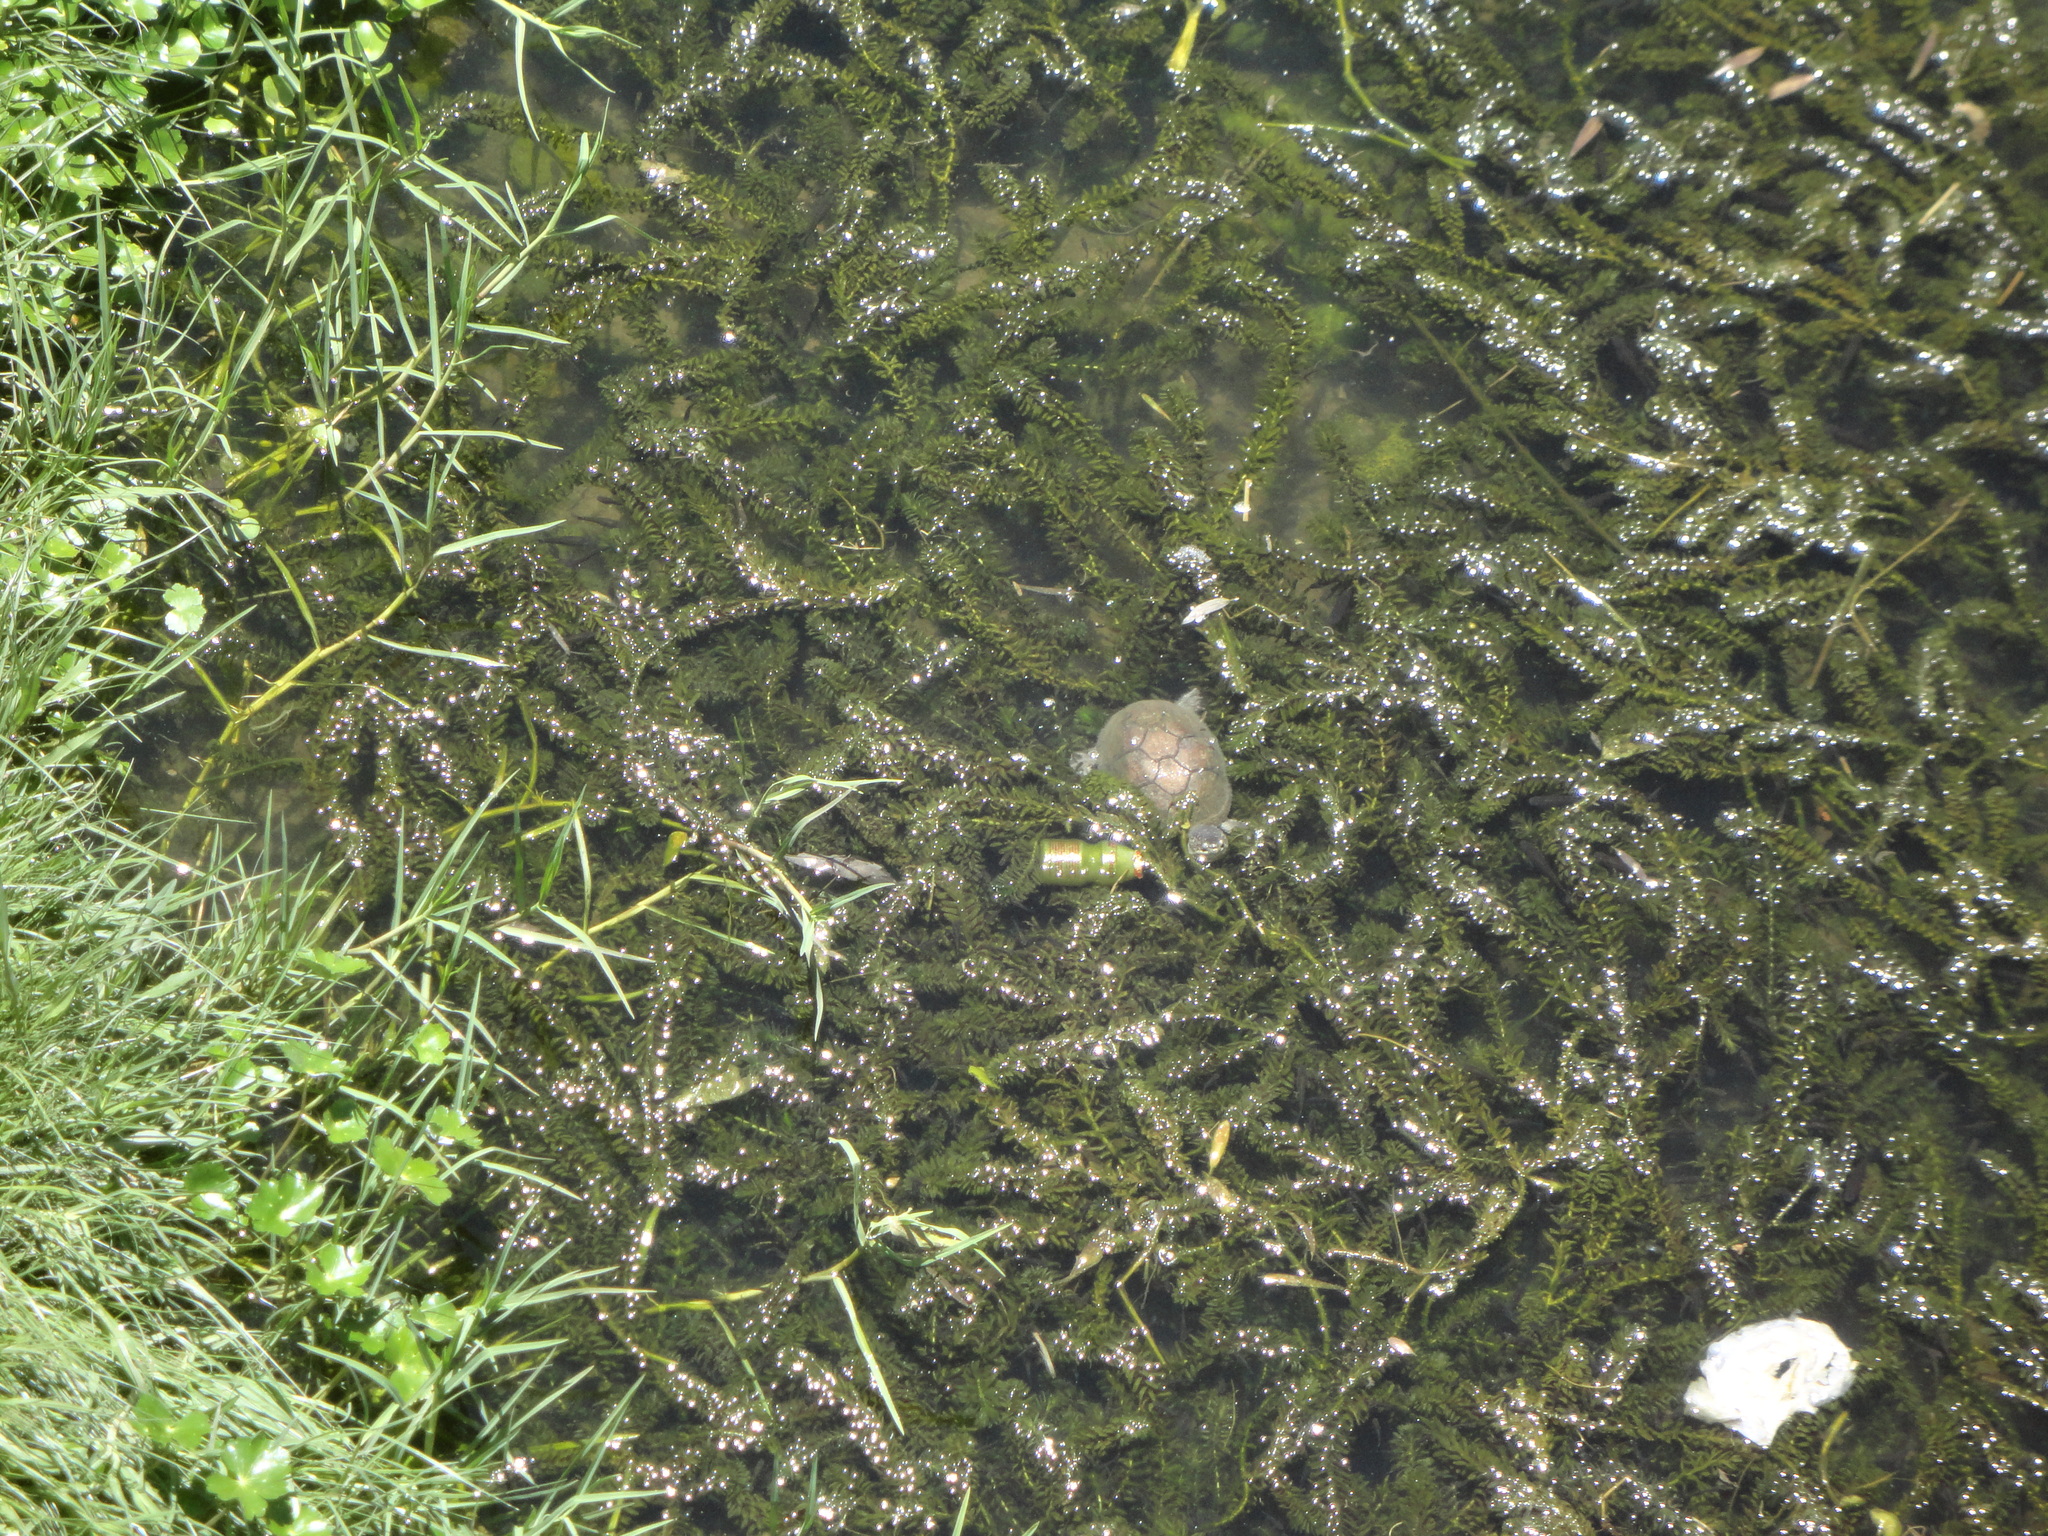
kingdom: Animalia
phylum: Chordata
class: Testudines
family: Kinosternidae
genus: Kinosternon
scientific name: Kinosternon integrum
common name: Mexican mud turtle
